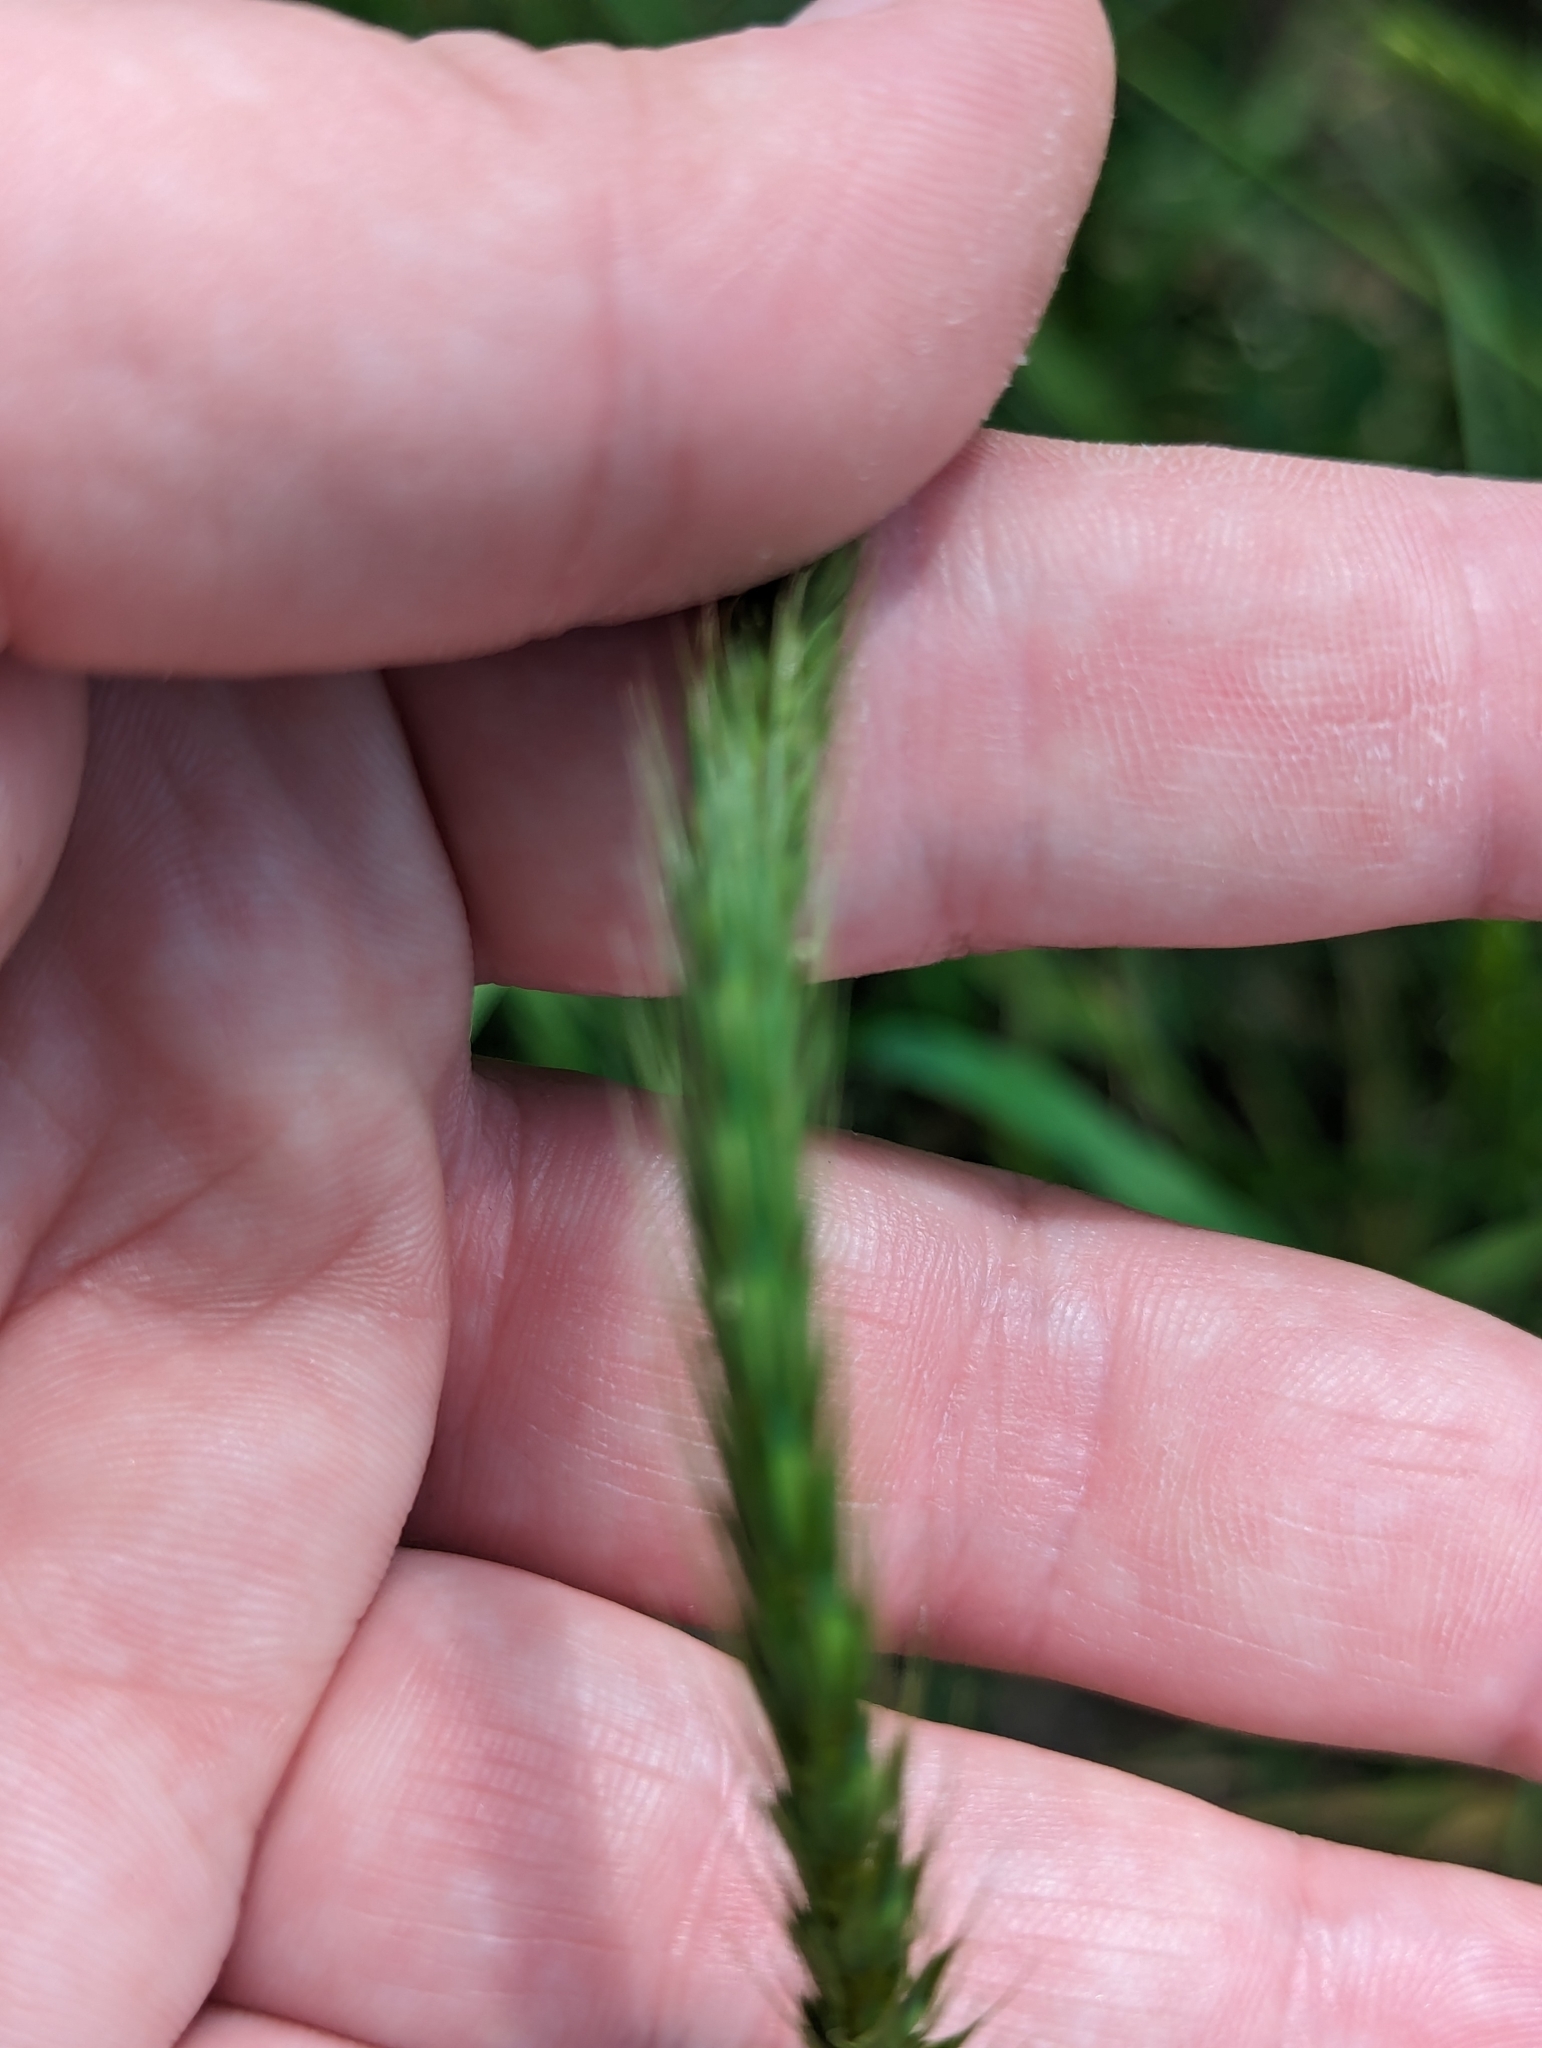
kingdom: Plantae
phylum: Tracheophyta
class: Liliopsida
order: Poales
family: Poaceae
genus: Hordeum
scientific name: Hordeum pusillum
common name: Little barley
